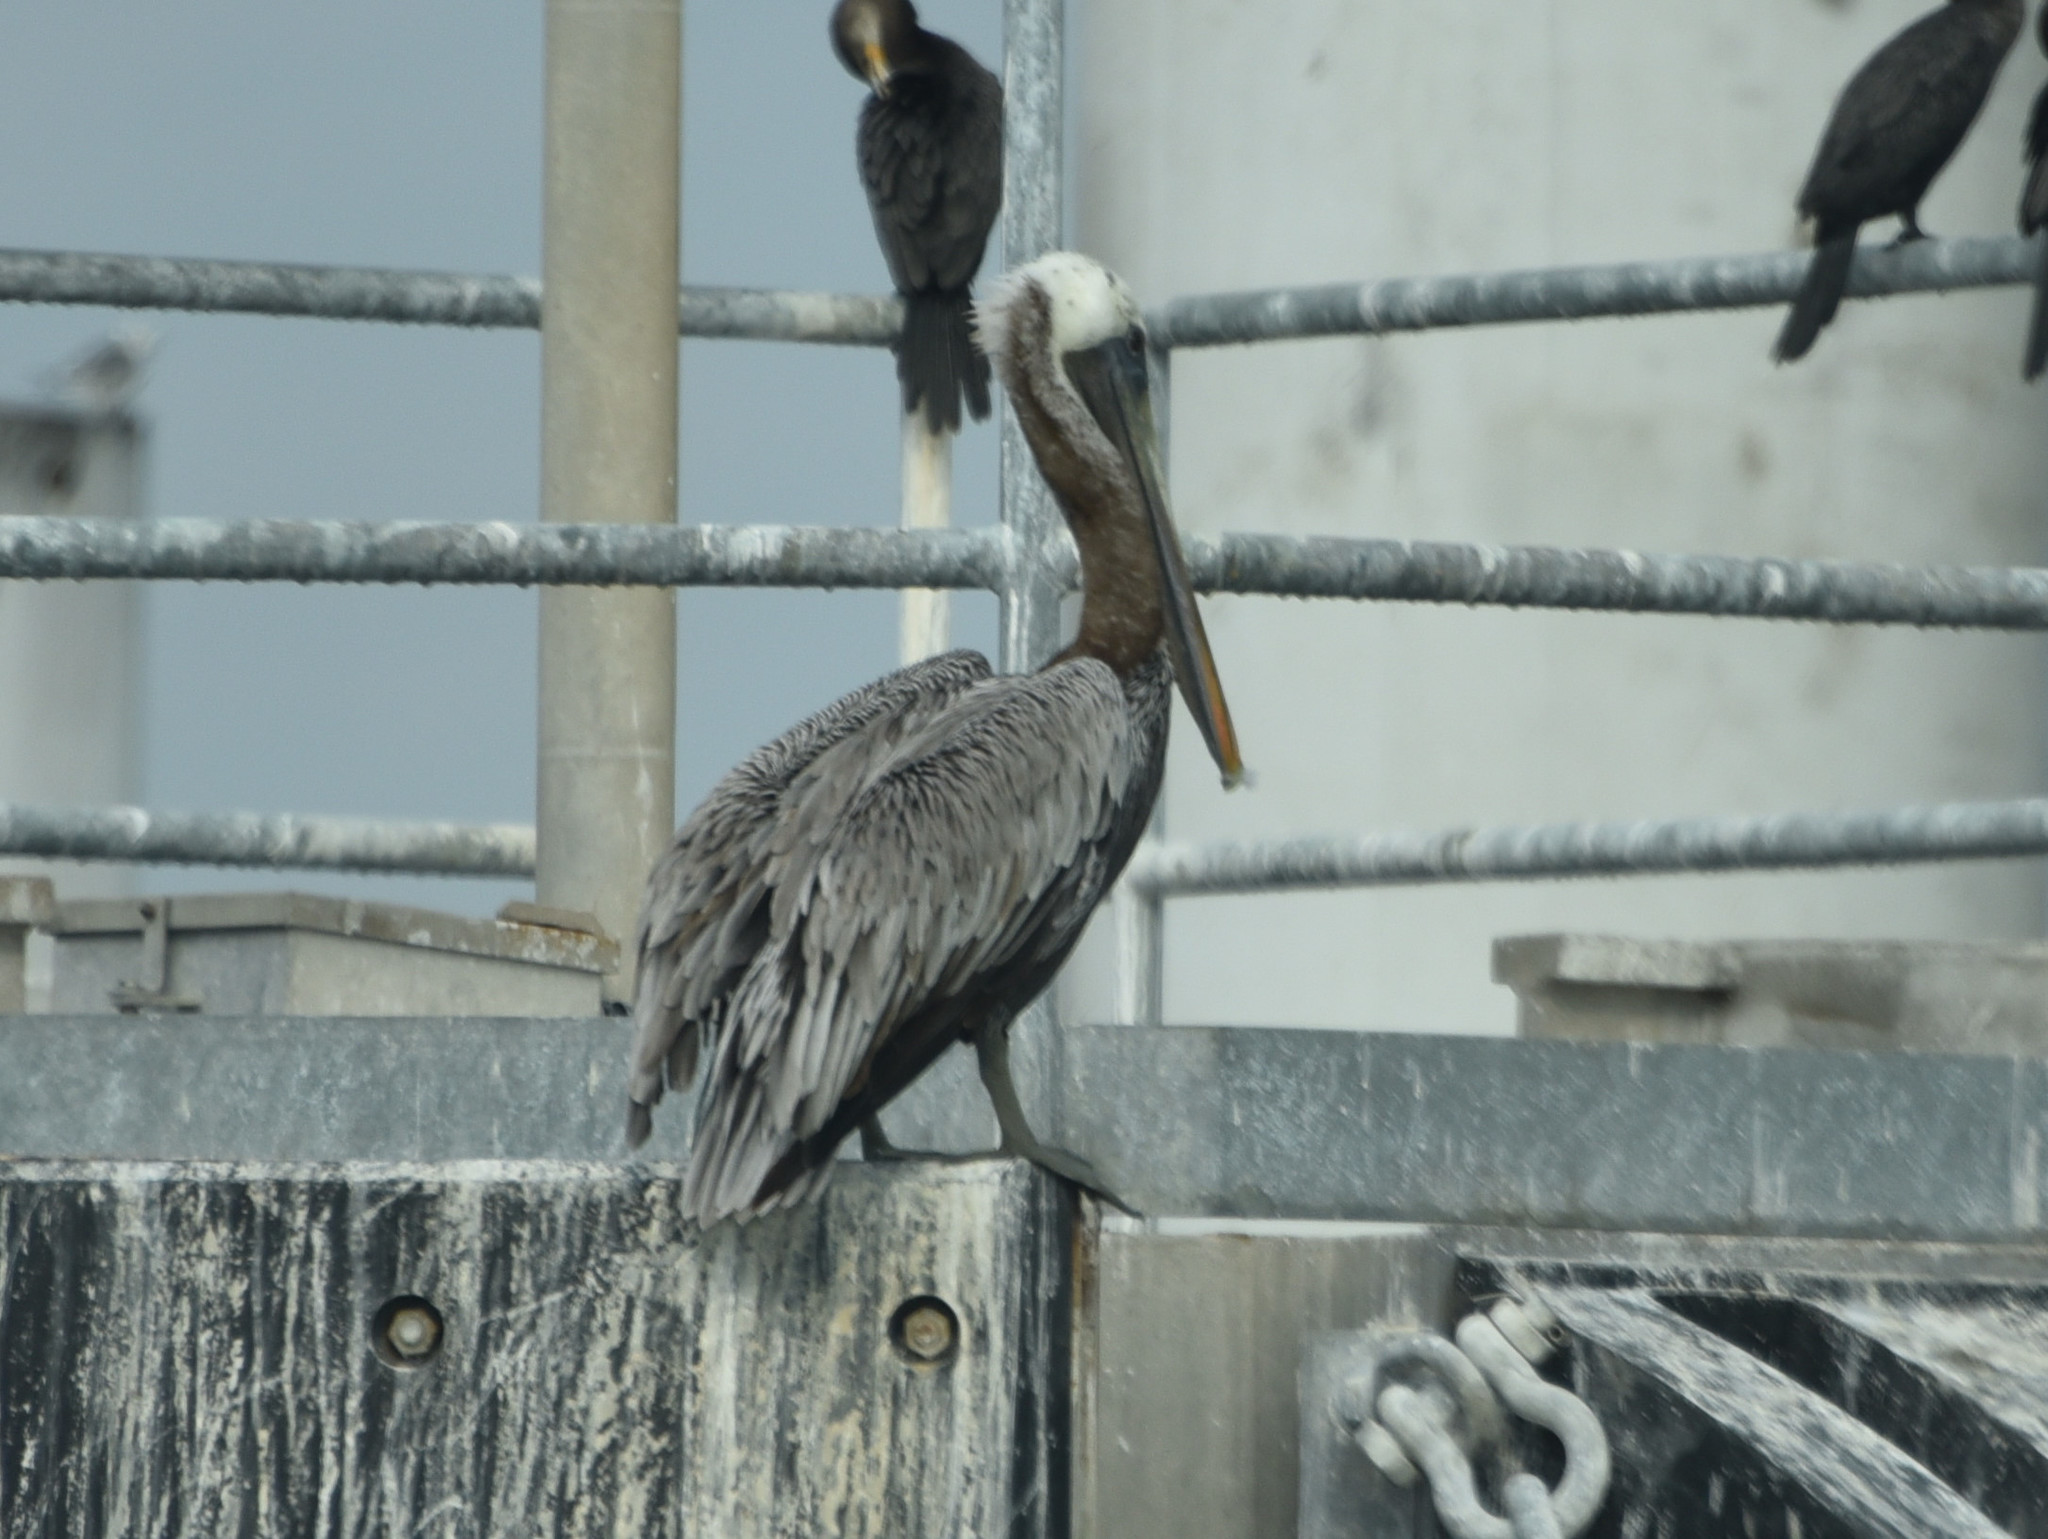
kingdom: Animalia
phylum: Chordata
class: Aves
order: Pelecaniformes
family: Pelecanidae
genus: Pelecanus
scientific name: Pelecanus occidentalis
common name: Brown pelican
